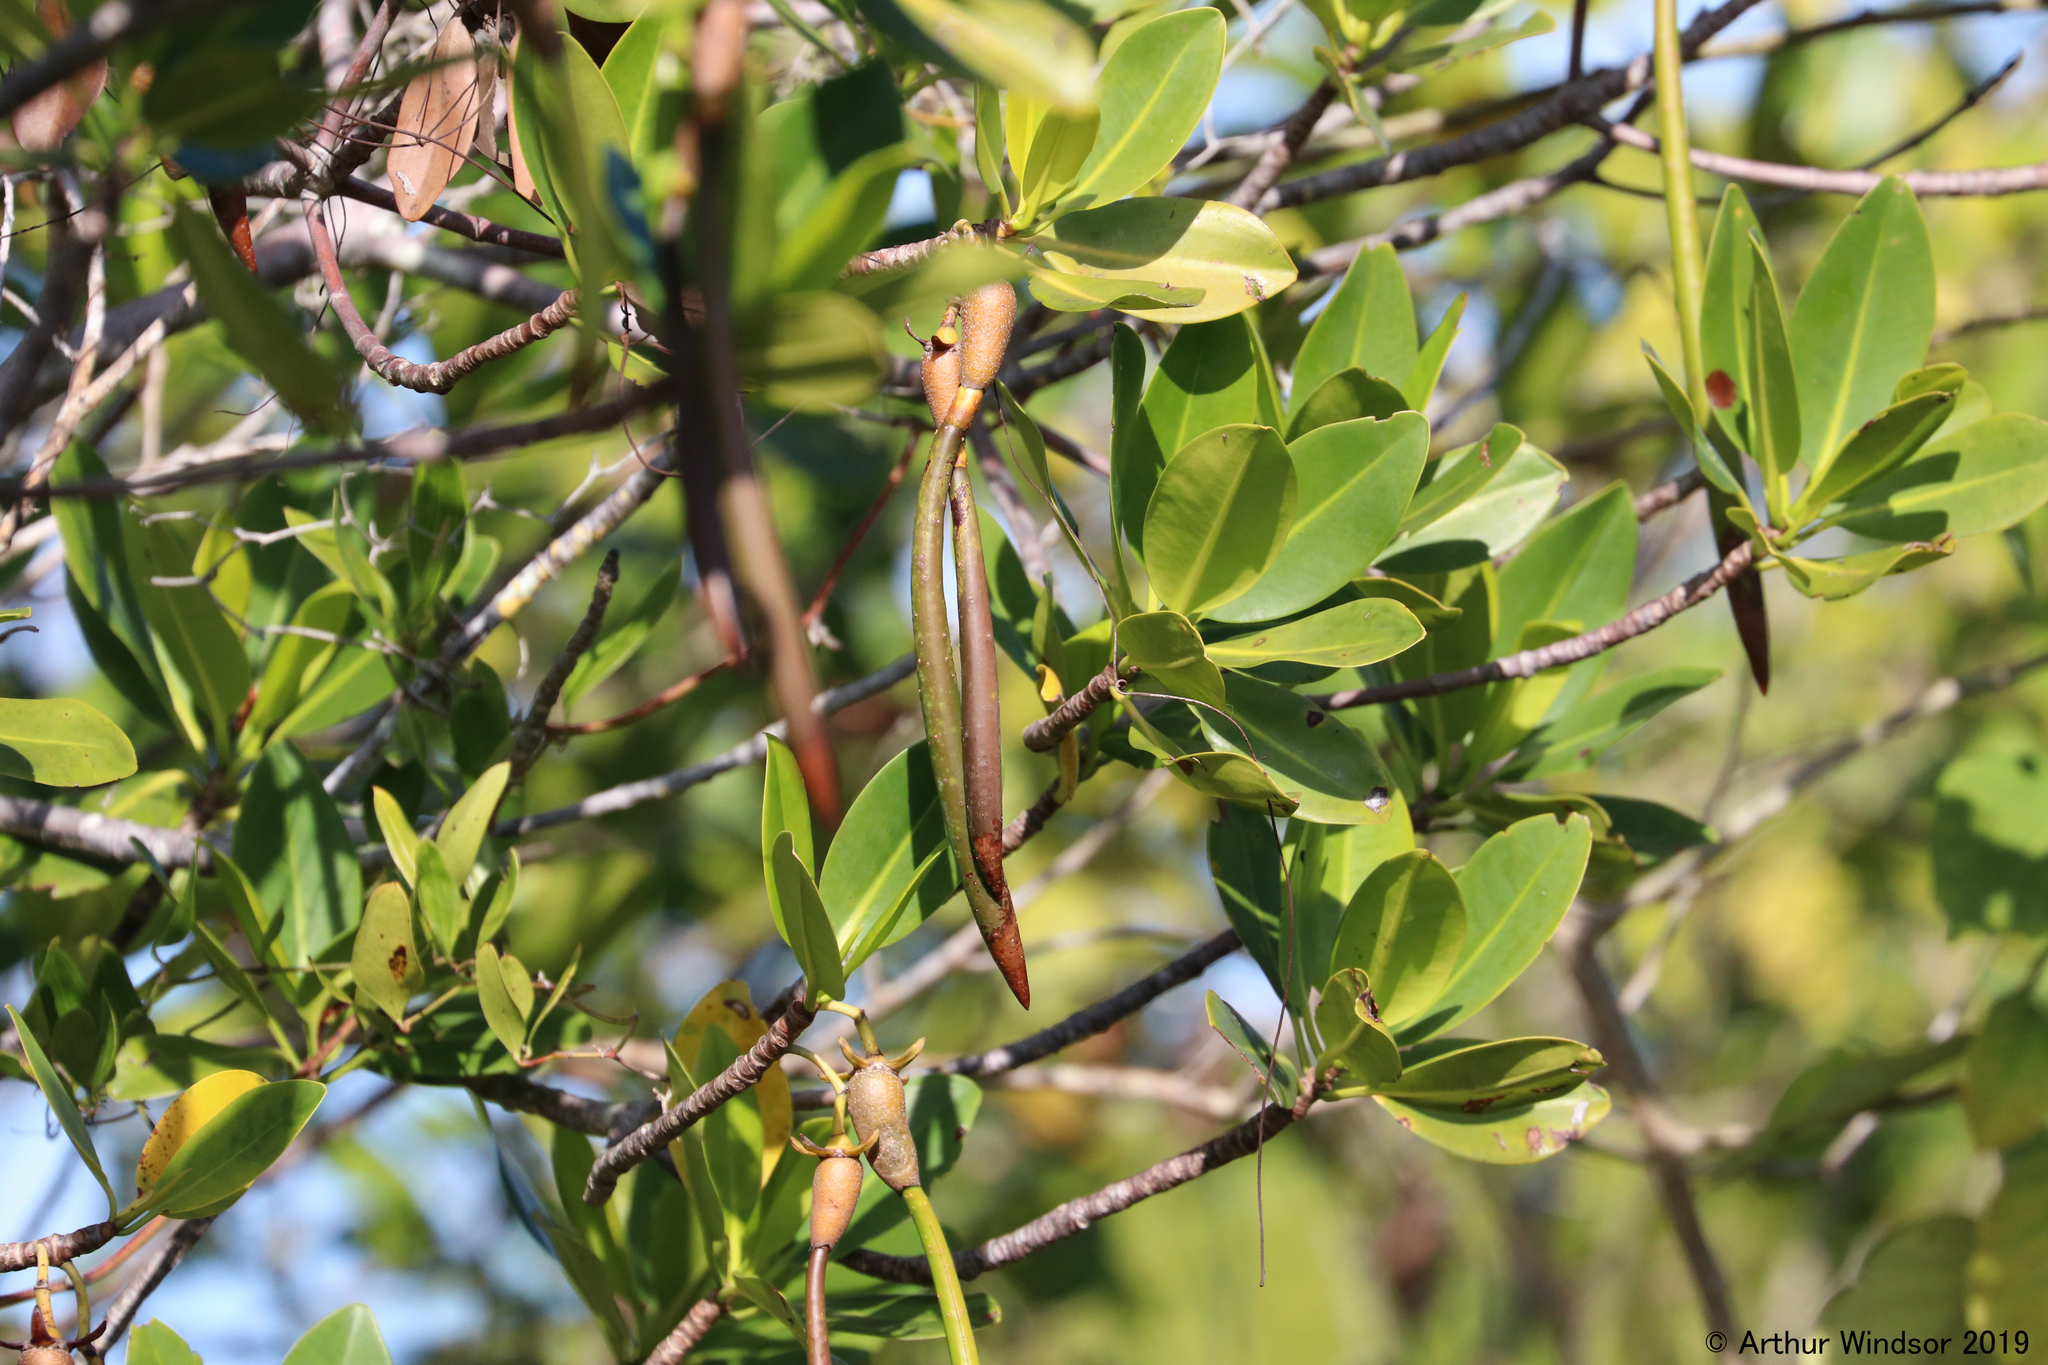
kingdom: Plantae
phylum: Tracheophyta
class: Magnoliopsida
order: Malpighiales
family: Rhizophoraceae
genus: Rhizophora
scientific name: Rhizophora mangle
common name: Red mangrove
